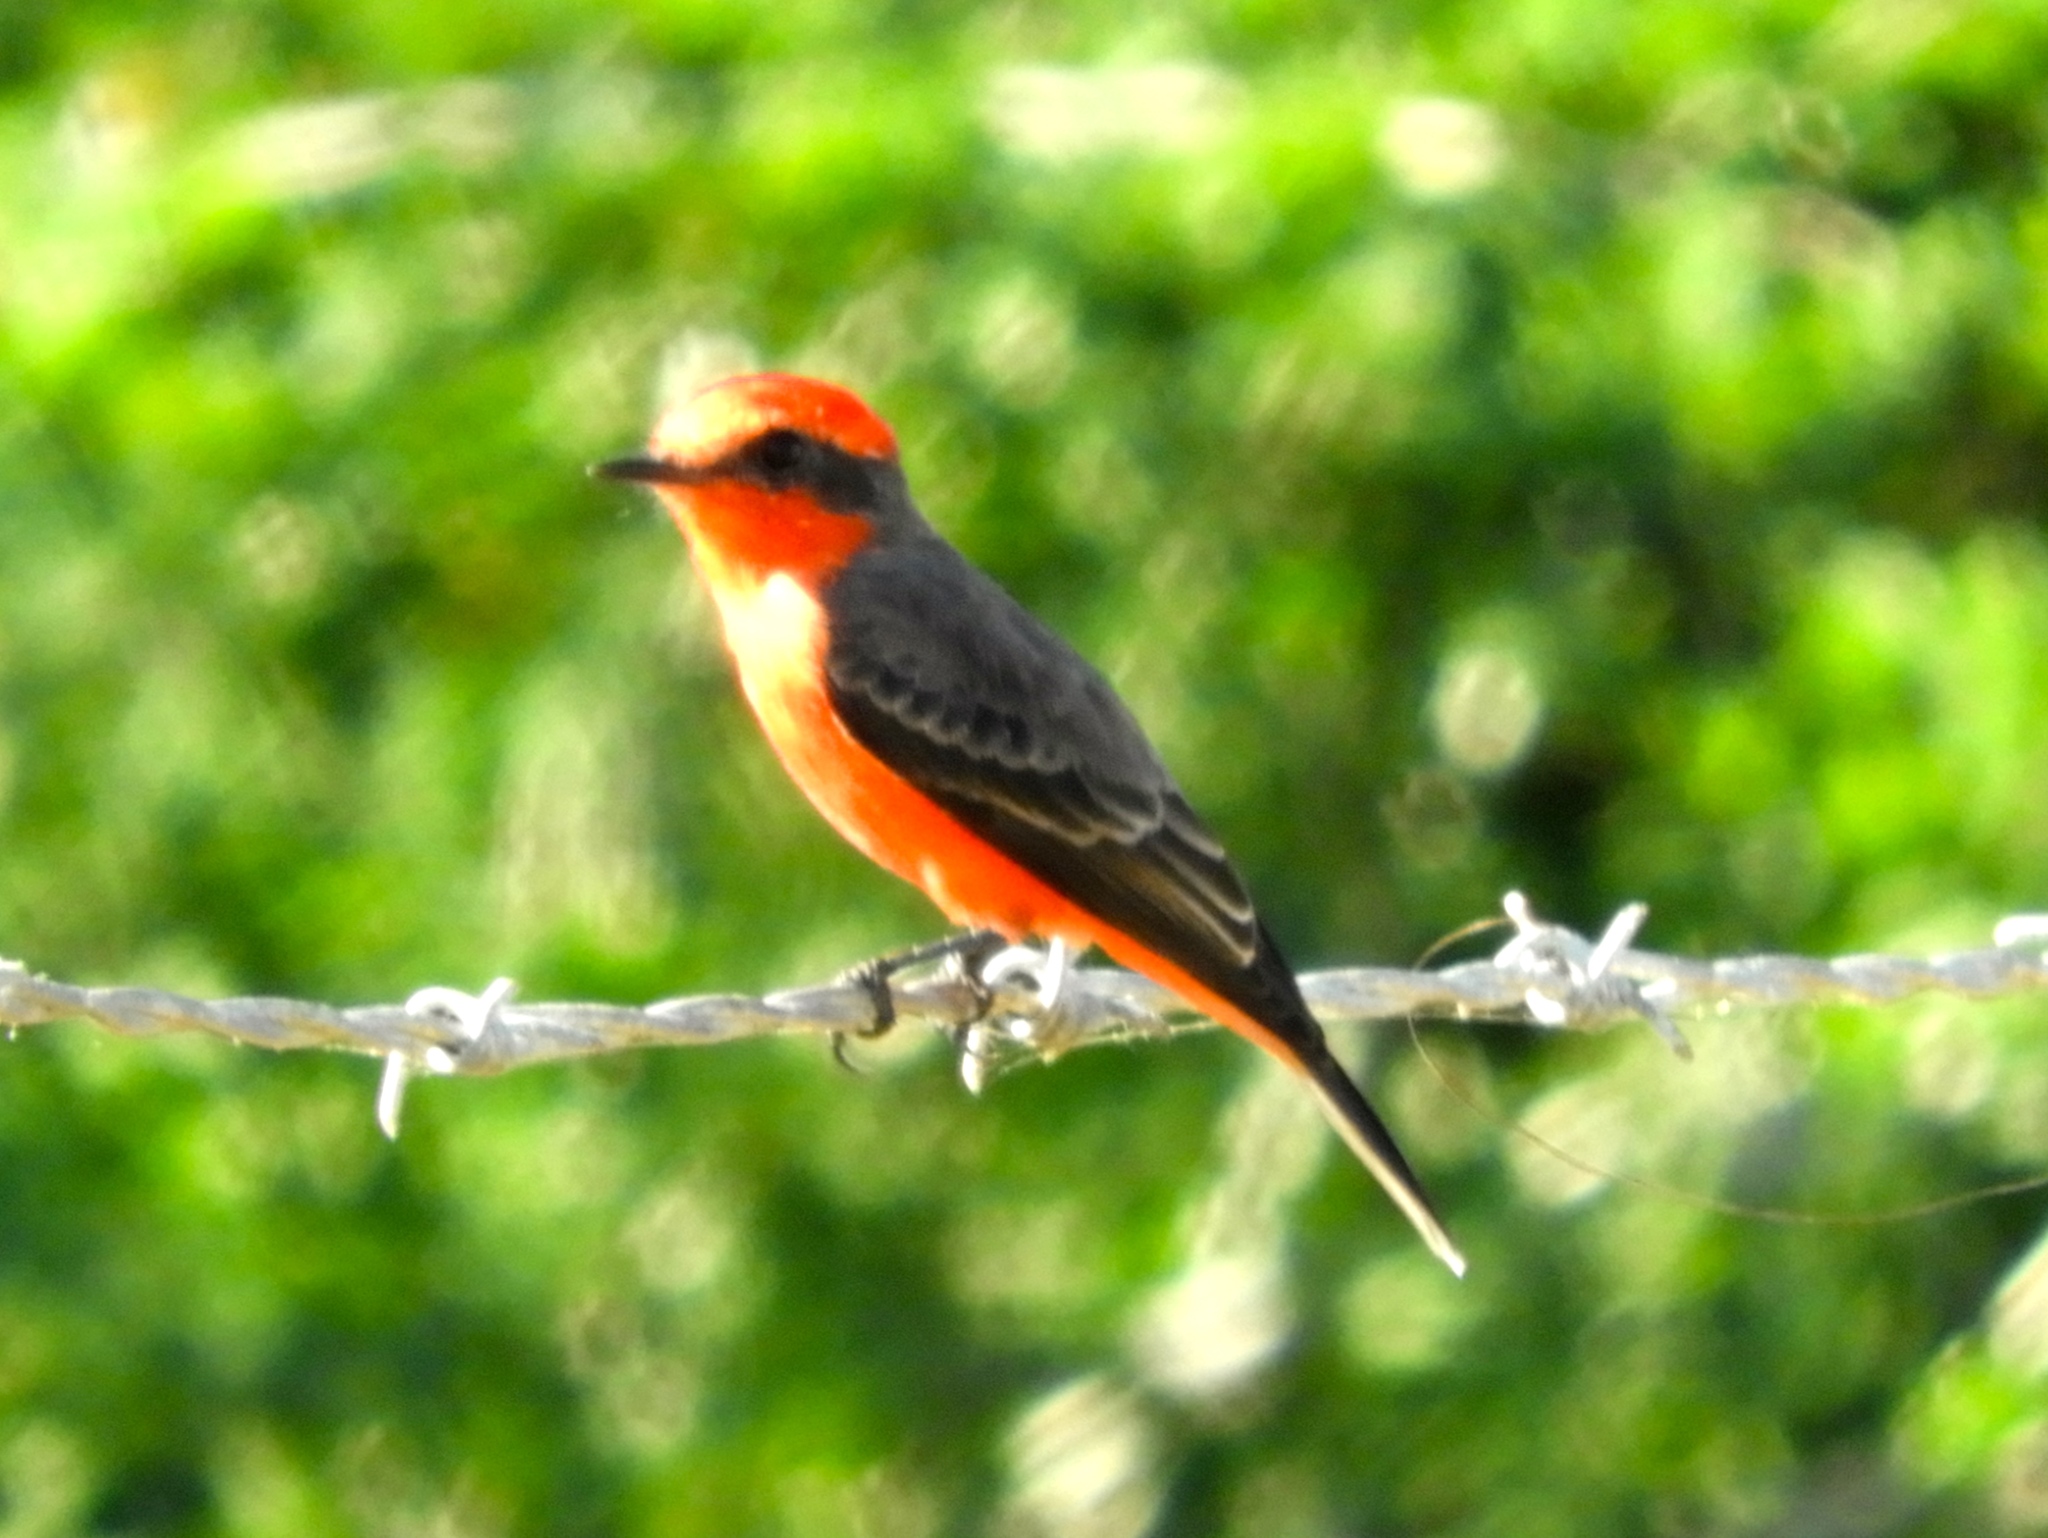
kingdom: Animalia
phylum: Chordata
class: Aves
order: Passeriformes
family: Tyrannidae
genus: Pyrocephalus
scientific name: Pyrocephalus rubinus
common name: Vermilion flycatcher
